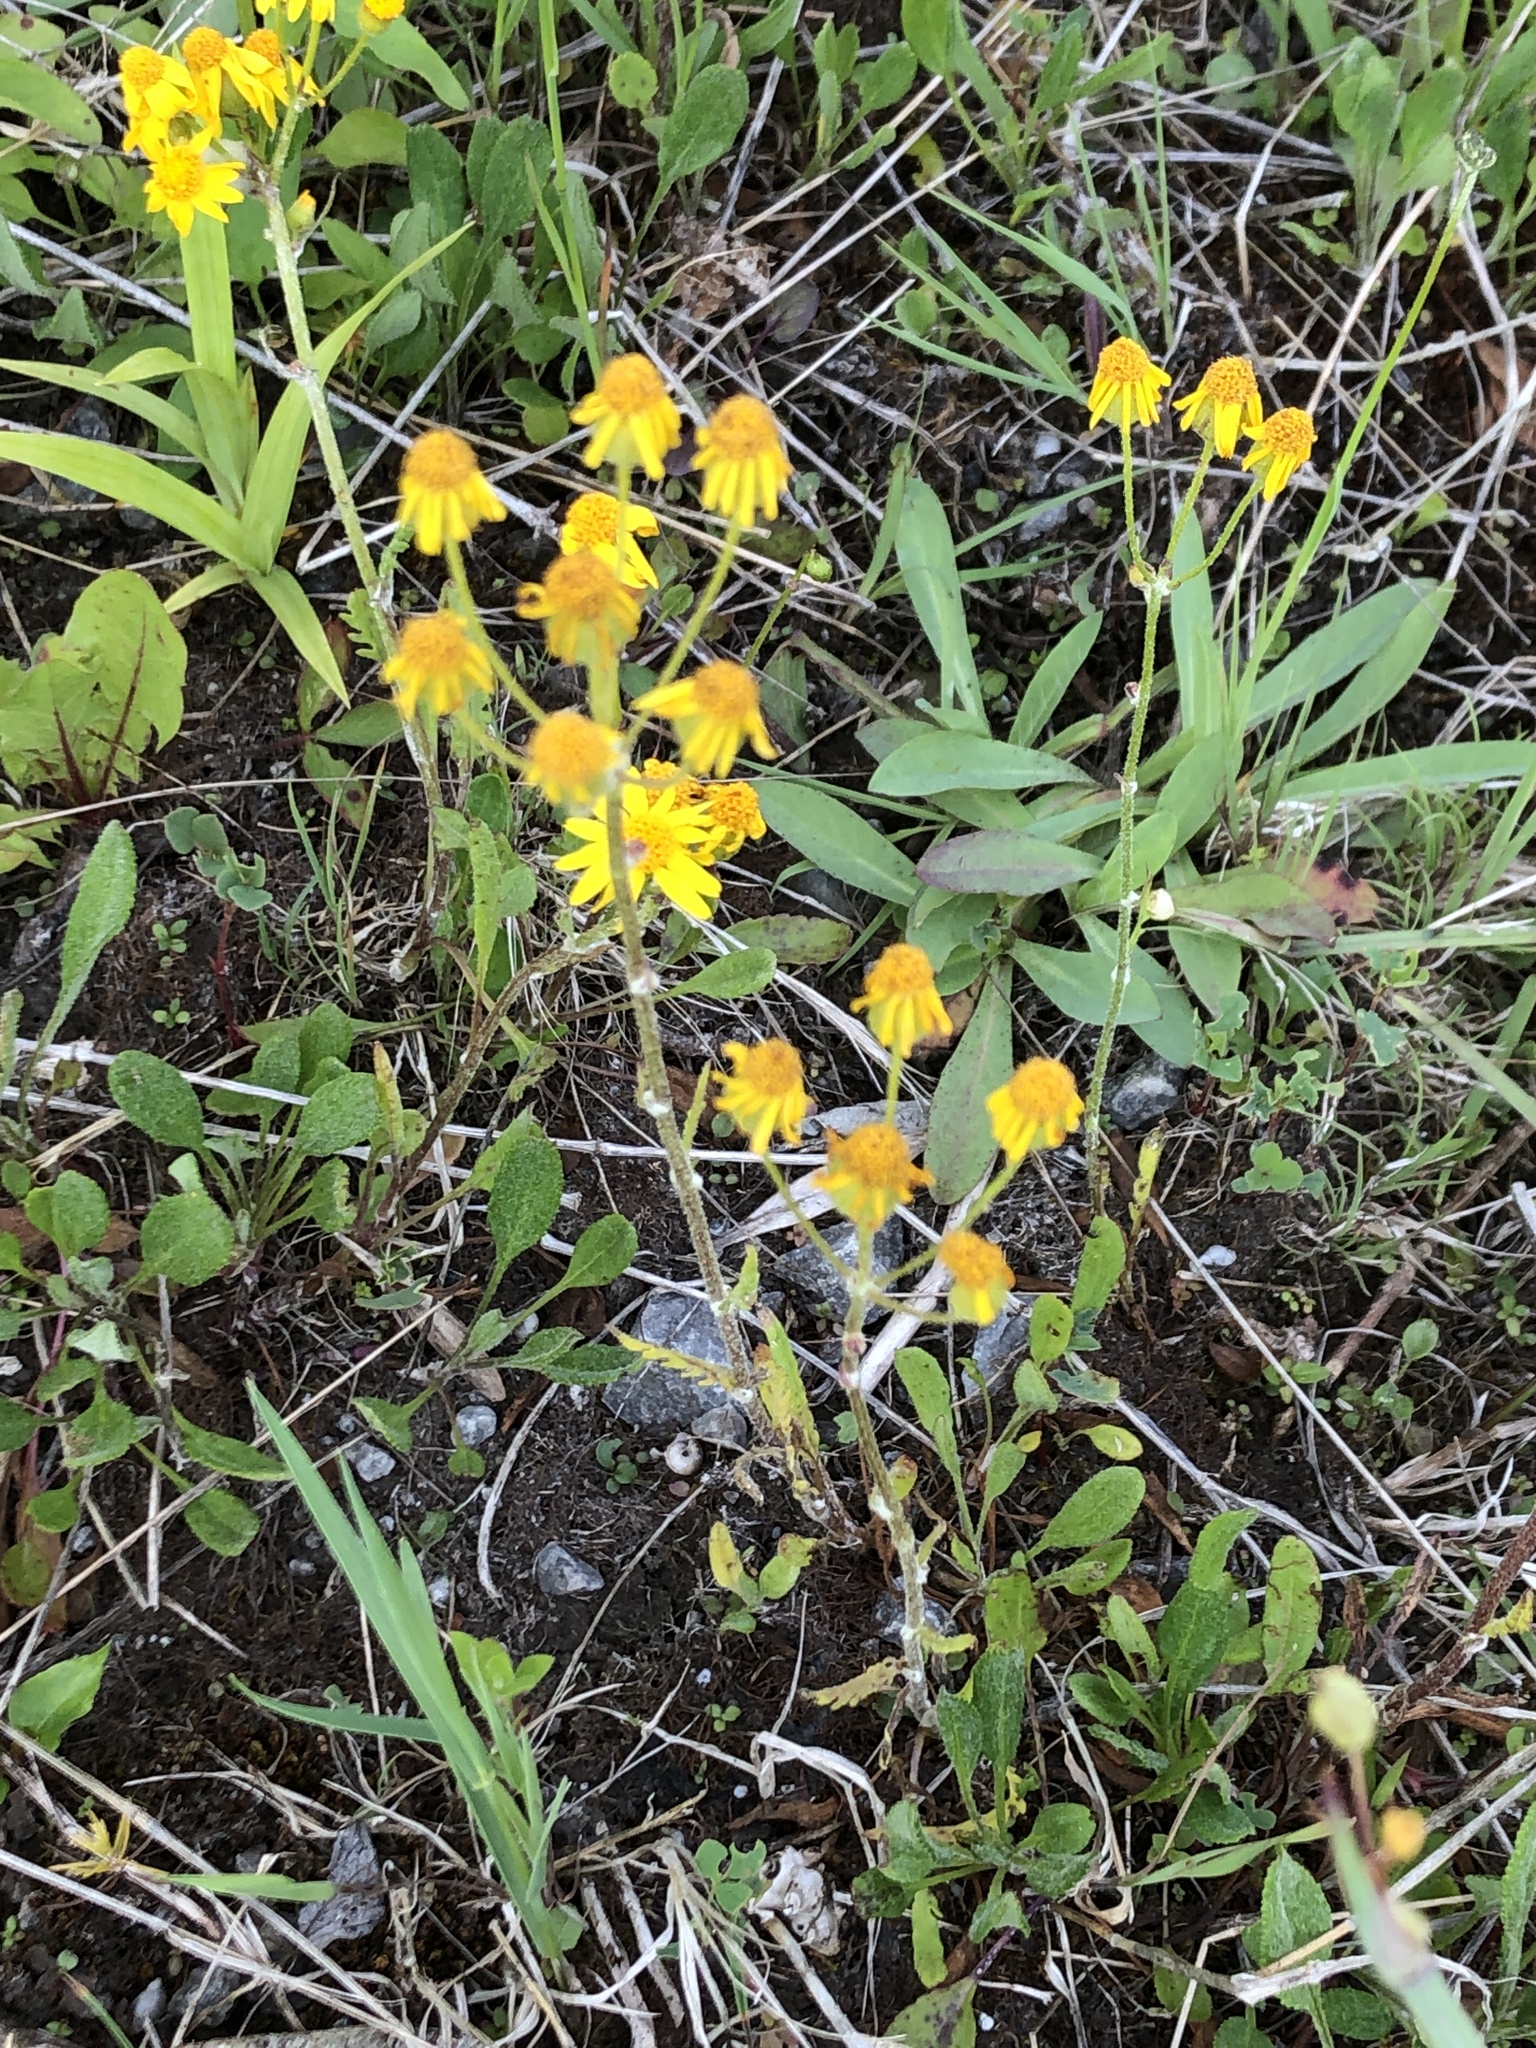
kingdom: Plantae
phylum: Tracheophyta
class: Magnoliopsida
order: Asterales
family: Asteraceae
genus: Packera
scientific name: Packera paupercula
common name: Balsam groundsel
